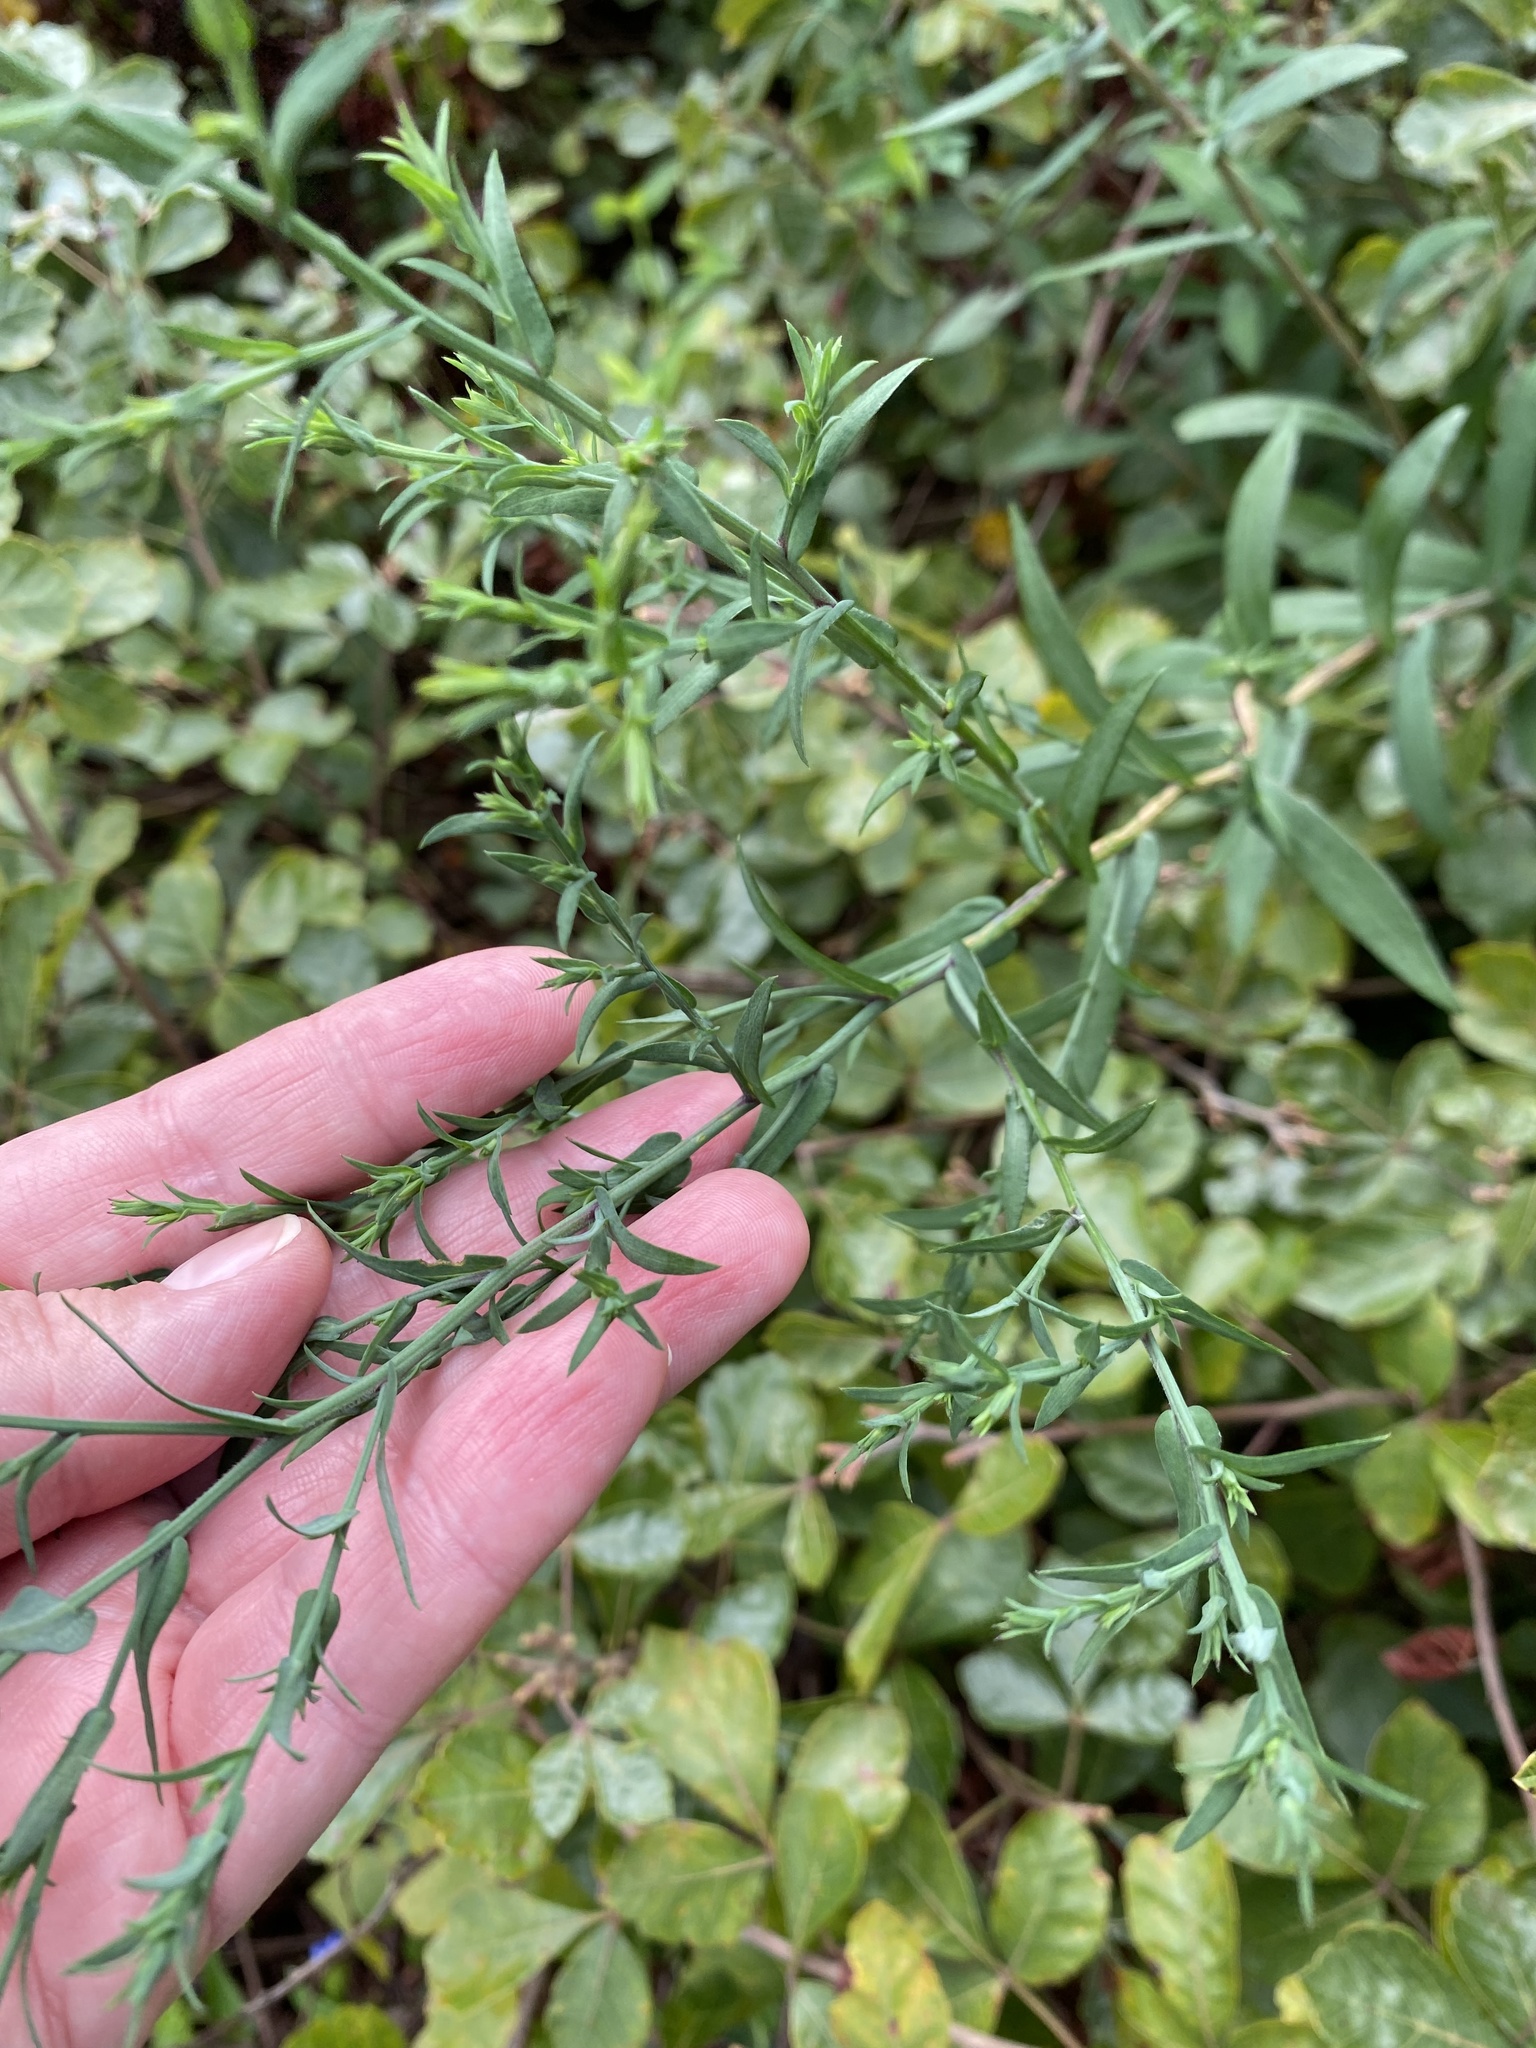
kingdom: Plantae
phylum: Tracheophyta
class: Magnoliopsida
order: Asterales
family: Asteraceae
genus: Symphyotrichum
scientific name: Symphyotrichum laeve
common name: Glaucous aster
